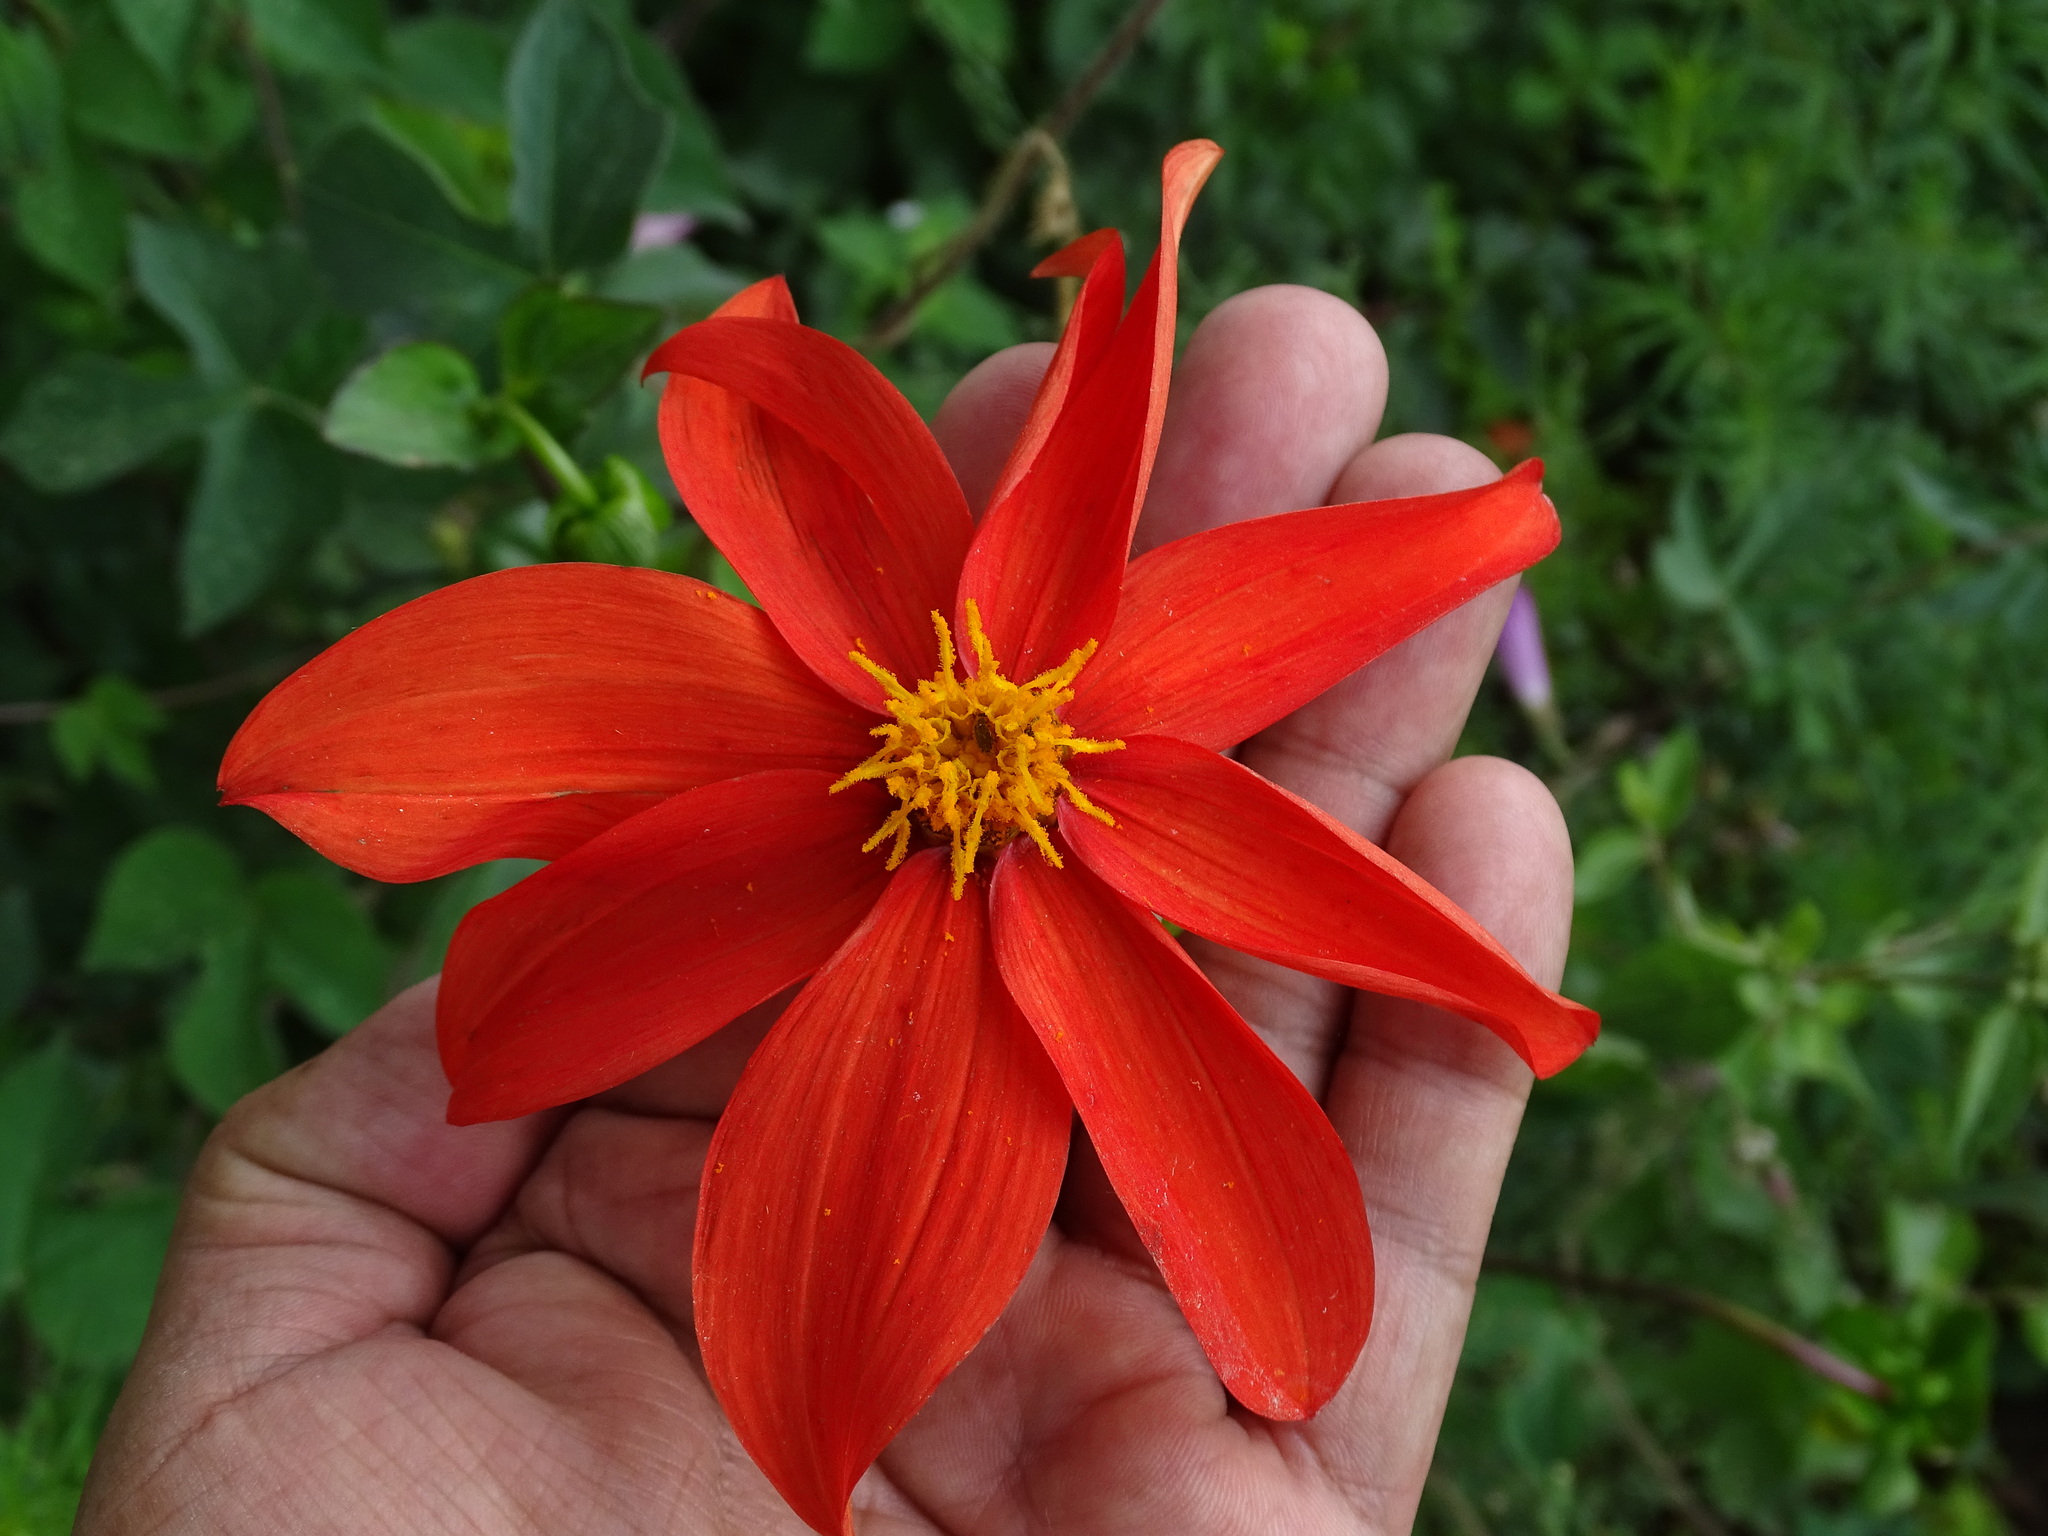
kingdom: Plantae
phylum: Tracheophyta
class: Magnoliopsida
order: Asterales
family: Asteraceae
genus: Dahlia
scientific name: Dahlia coccinea
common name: Red dahlia
